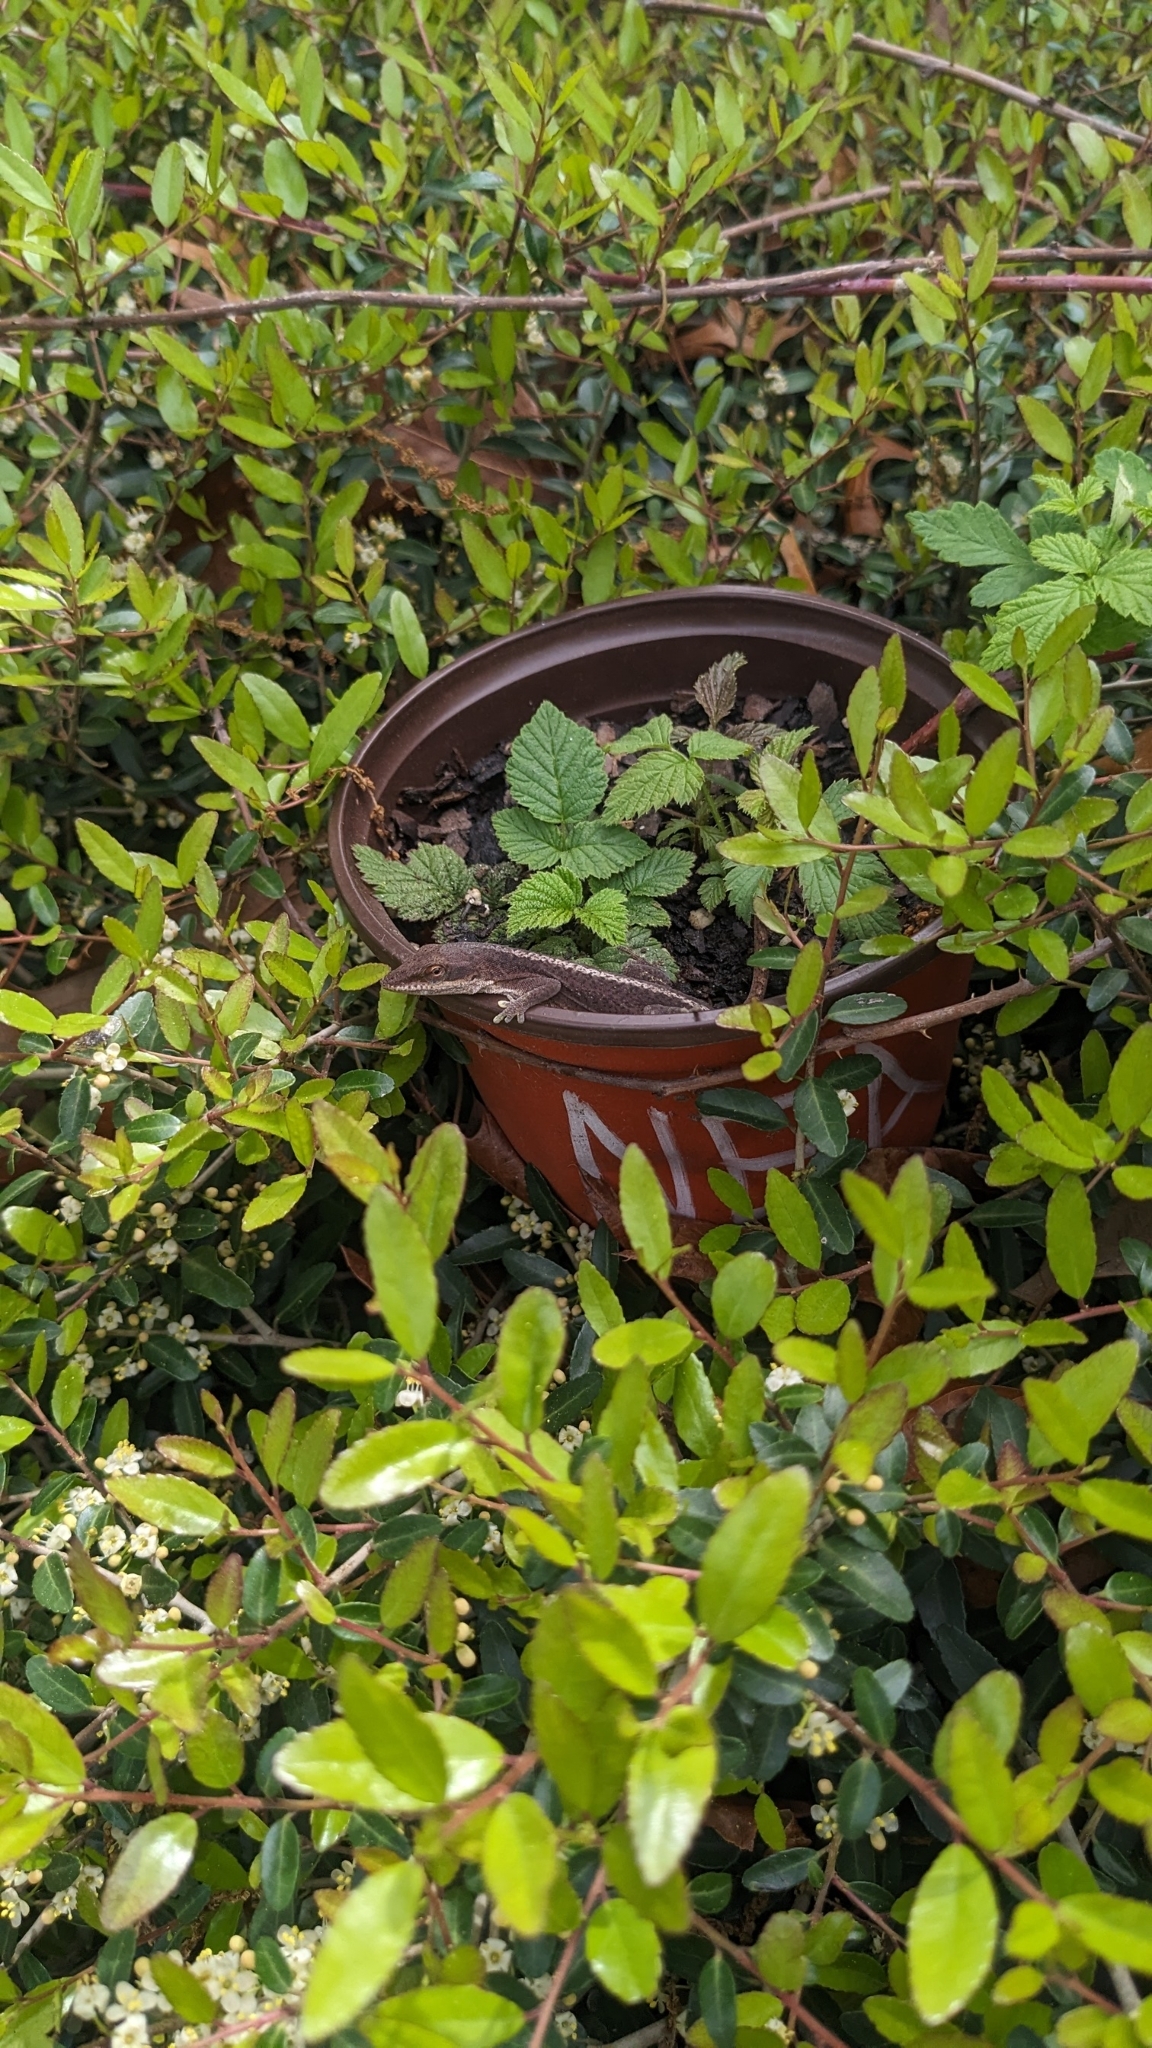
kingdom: Animalia
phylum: Chordata
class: Squamata
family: Dactyloidae
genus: Anolis
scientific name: Anolis carolinensis
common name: Green anole
